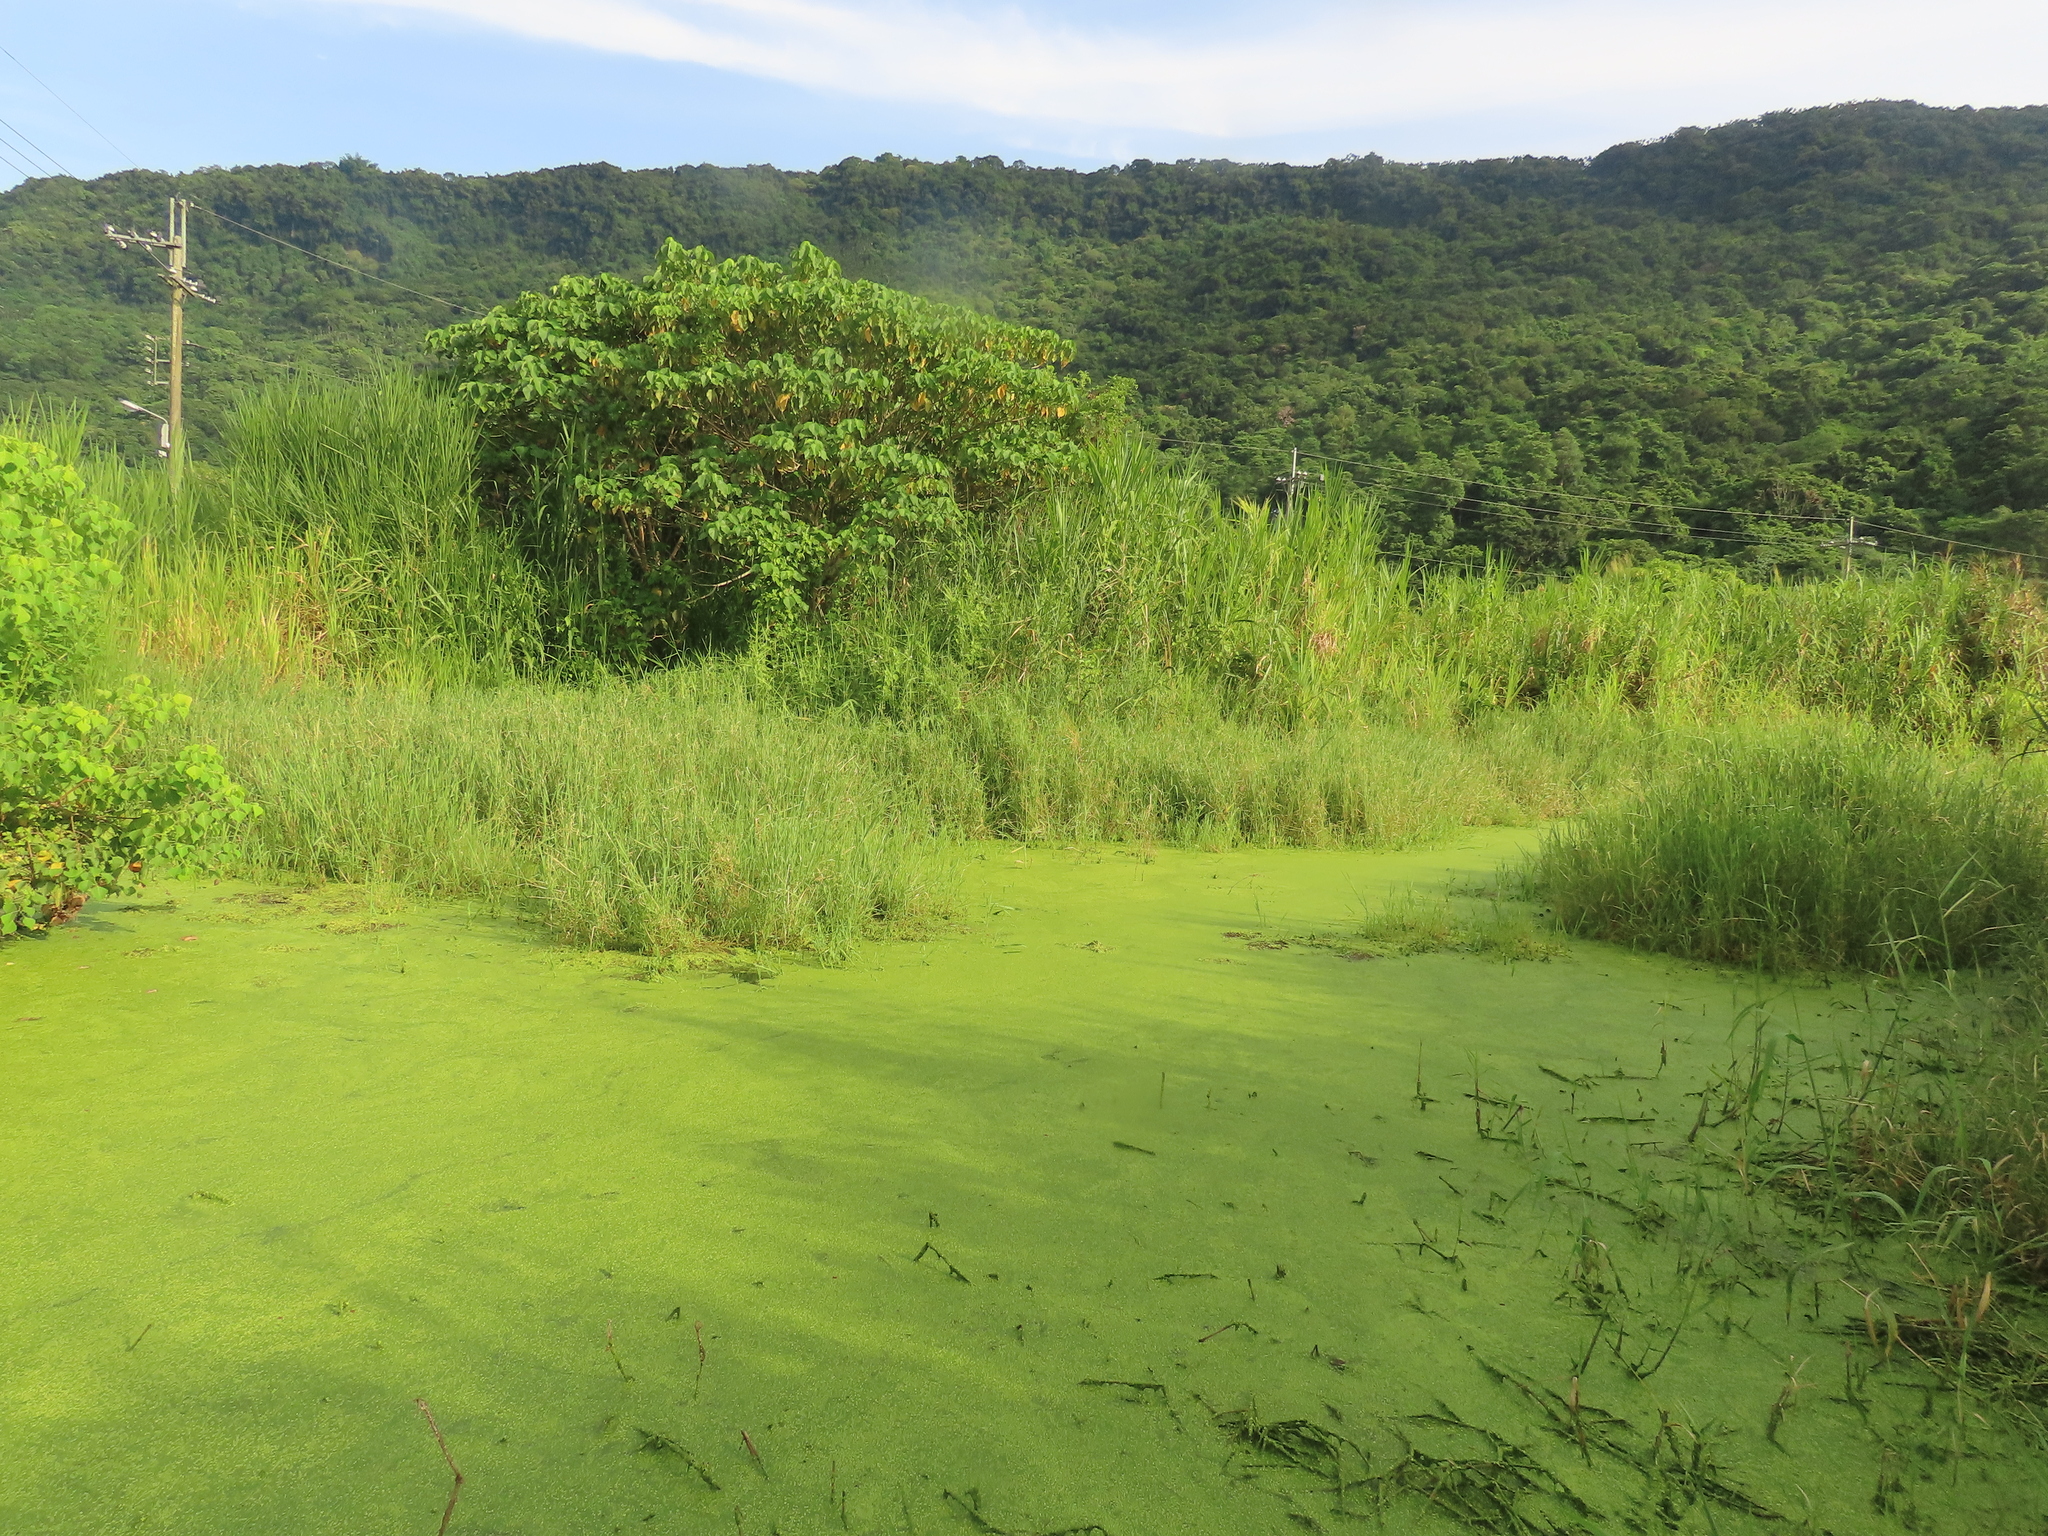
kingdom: Plantae
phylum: Tracheophyta
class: Polypodiopsida
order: Salviniales
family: Salviniaceae
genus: Azolla
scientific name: Azolla caroliniana
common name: Carolina mosquitofern
